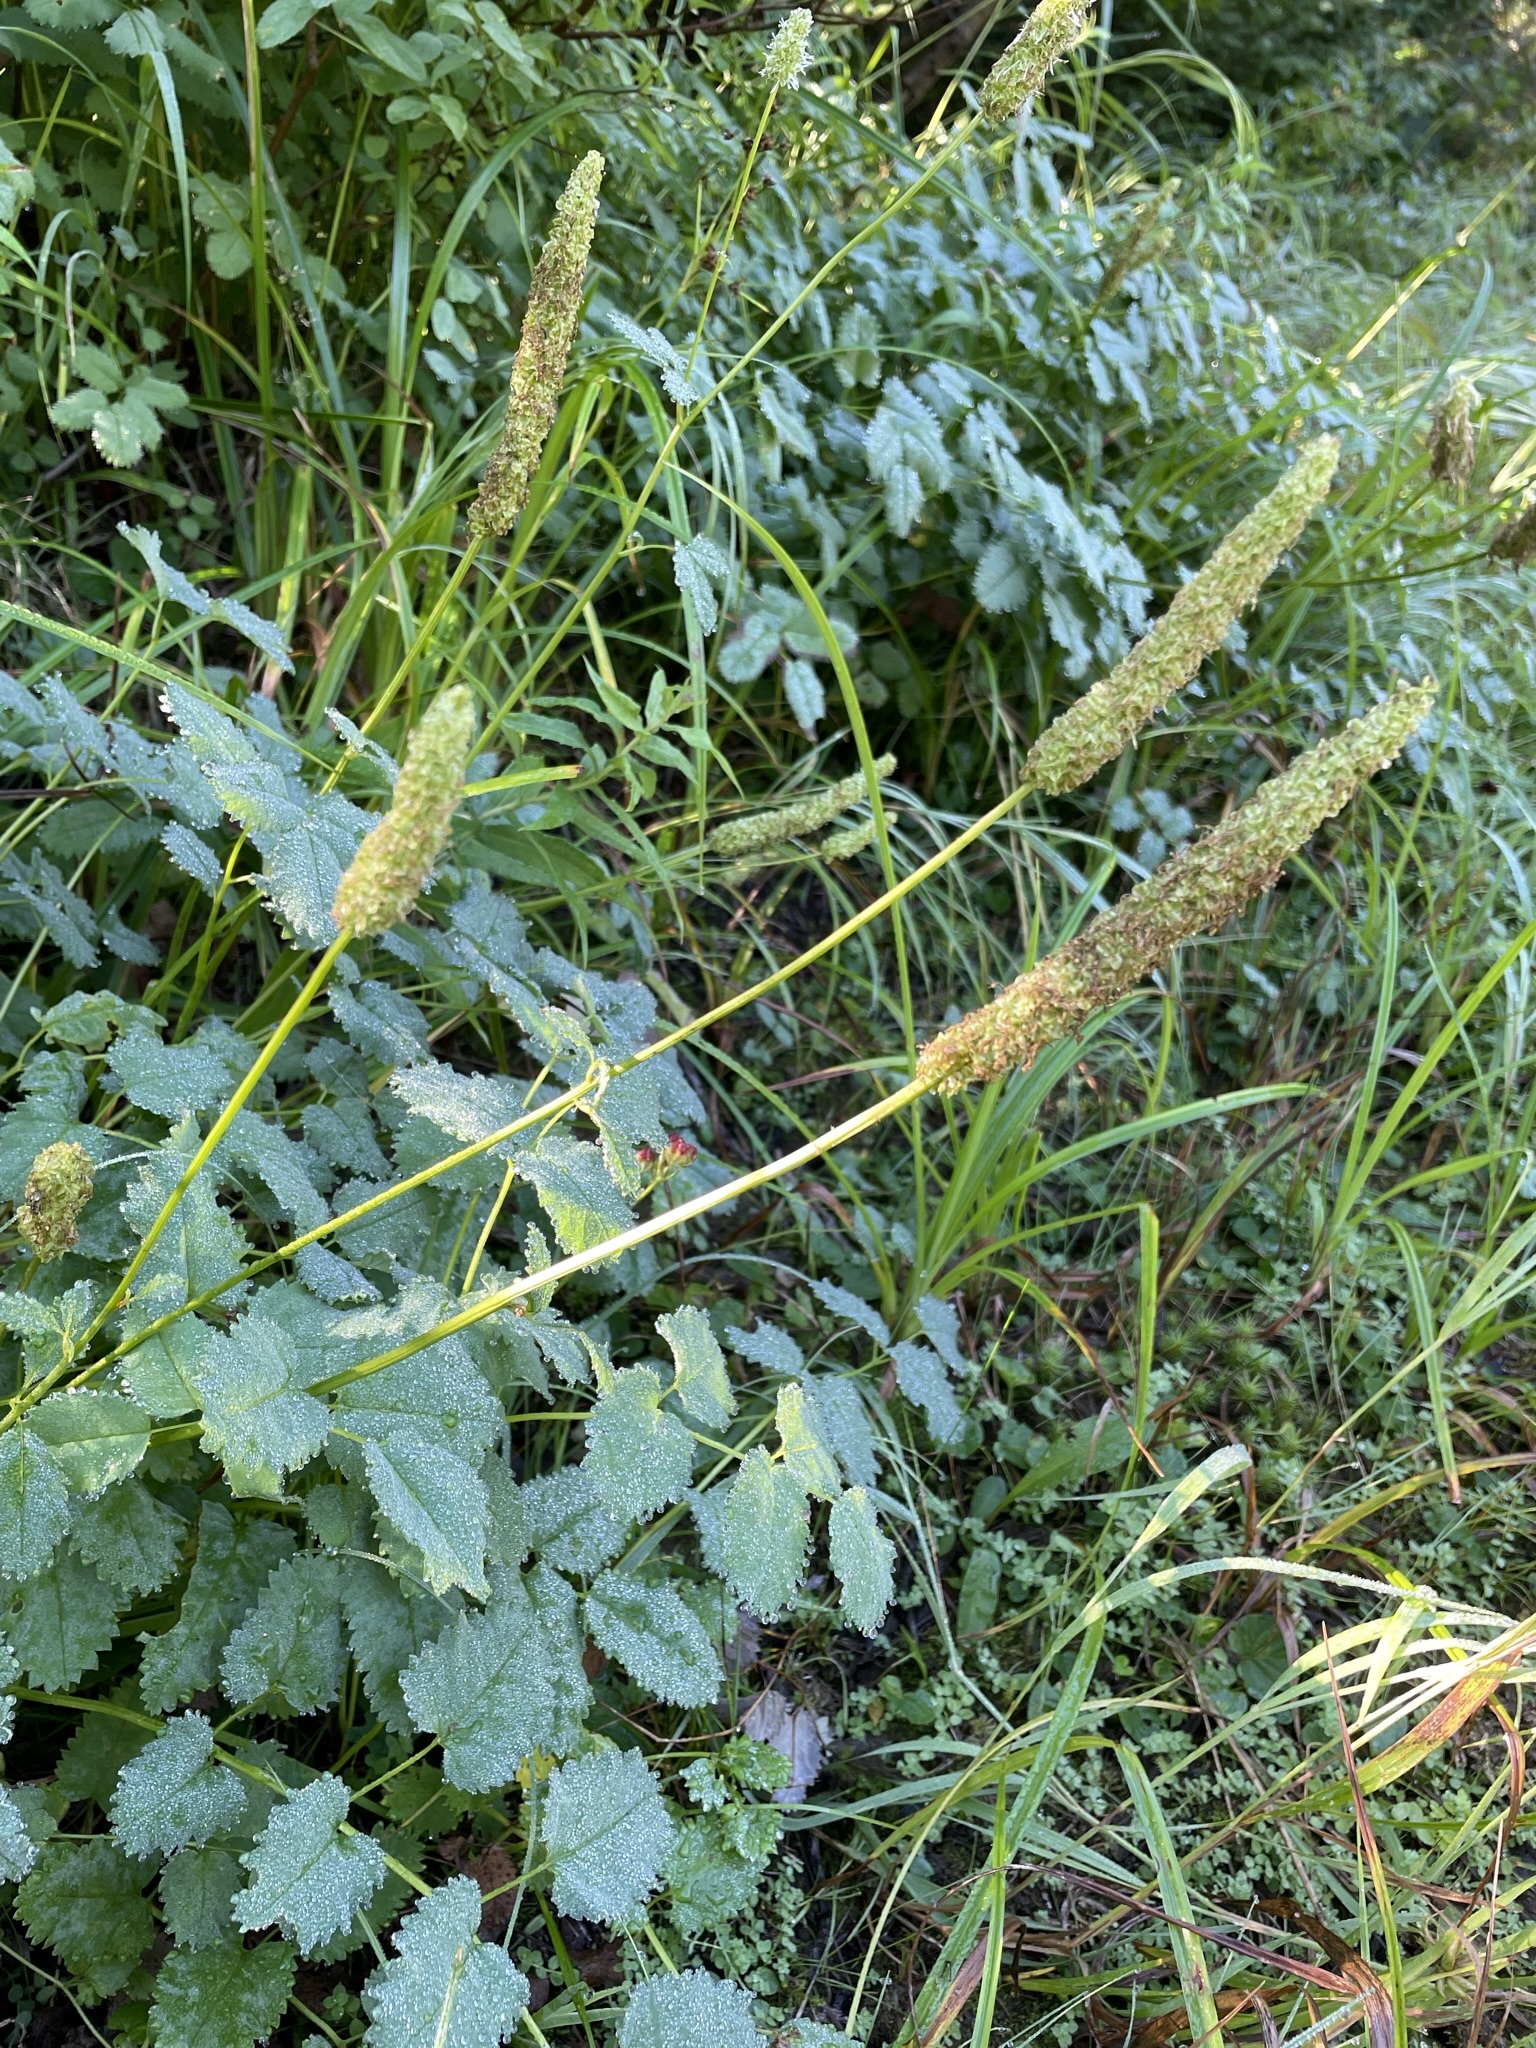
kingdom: Plantae
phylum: Tracheophyta
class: Magnoliopsida
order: Rosales
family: Rosaceae
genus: Sanguisorba
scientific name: Sanguisorba stipulata
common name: Sitka burnet
